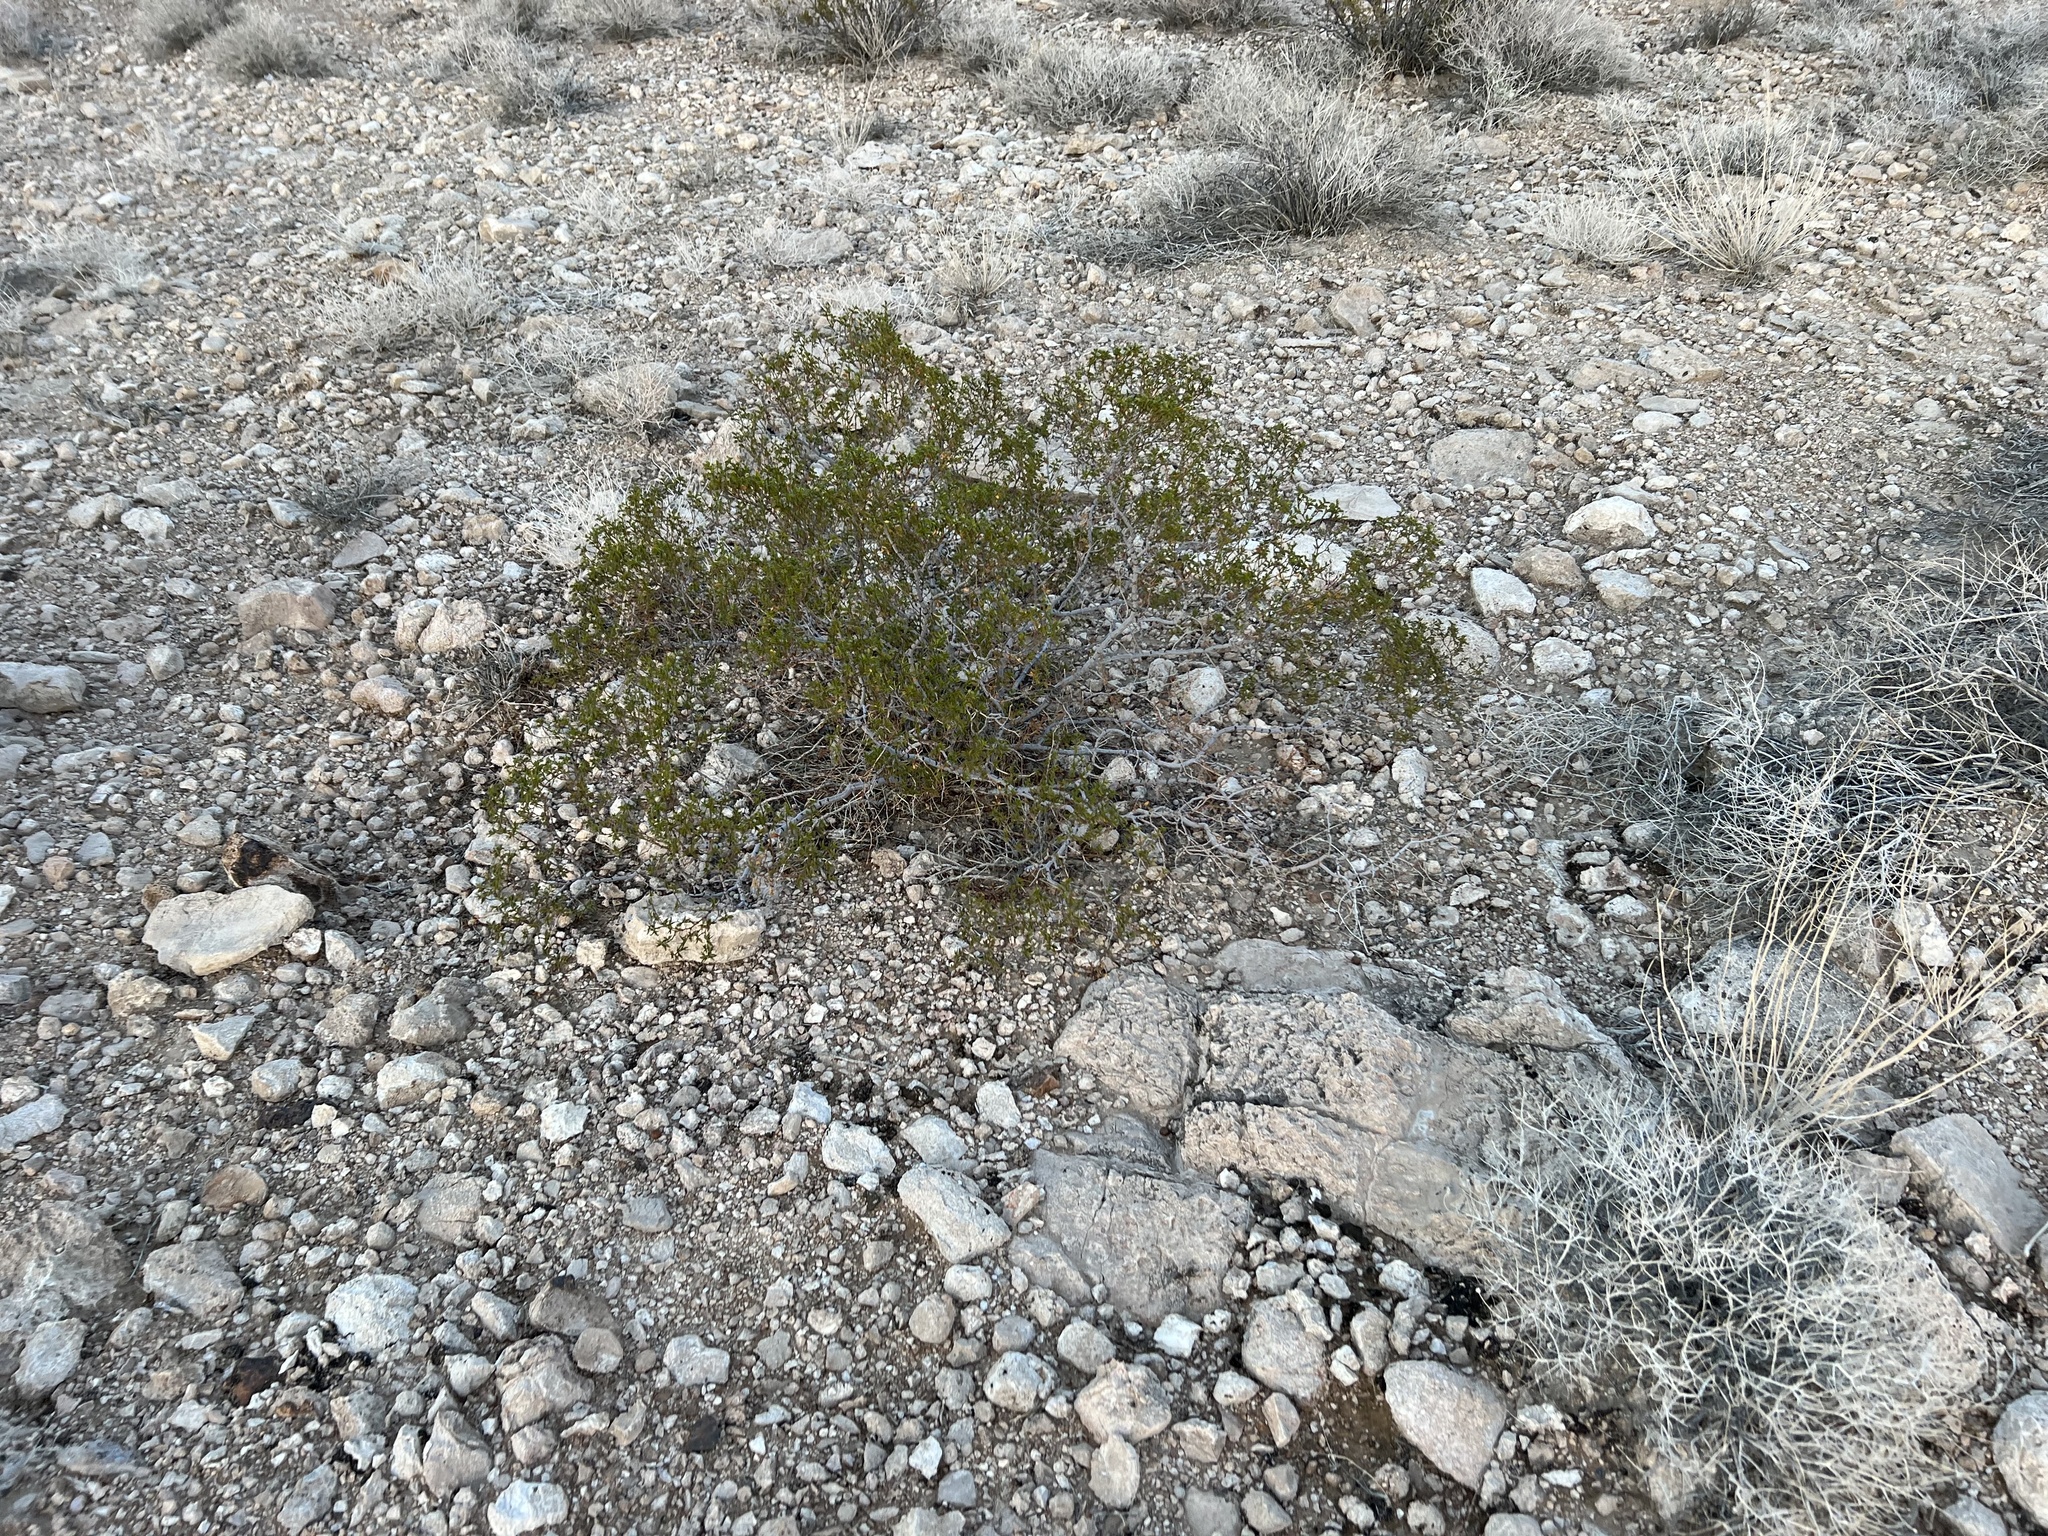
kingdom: Plantae
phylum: Tracheophyta
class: Magnoliopsida
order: Zygophyllales
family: Zygophyllaceae
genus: Larrea
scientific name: Larrea tridentata
